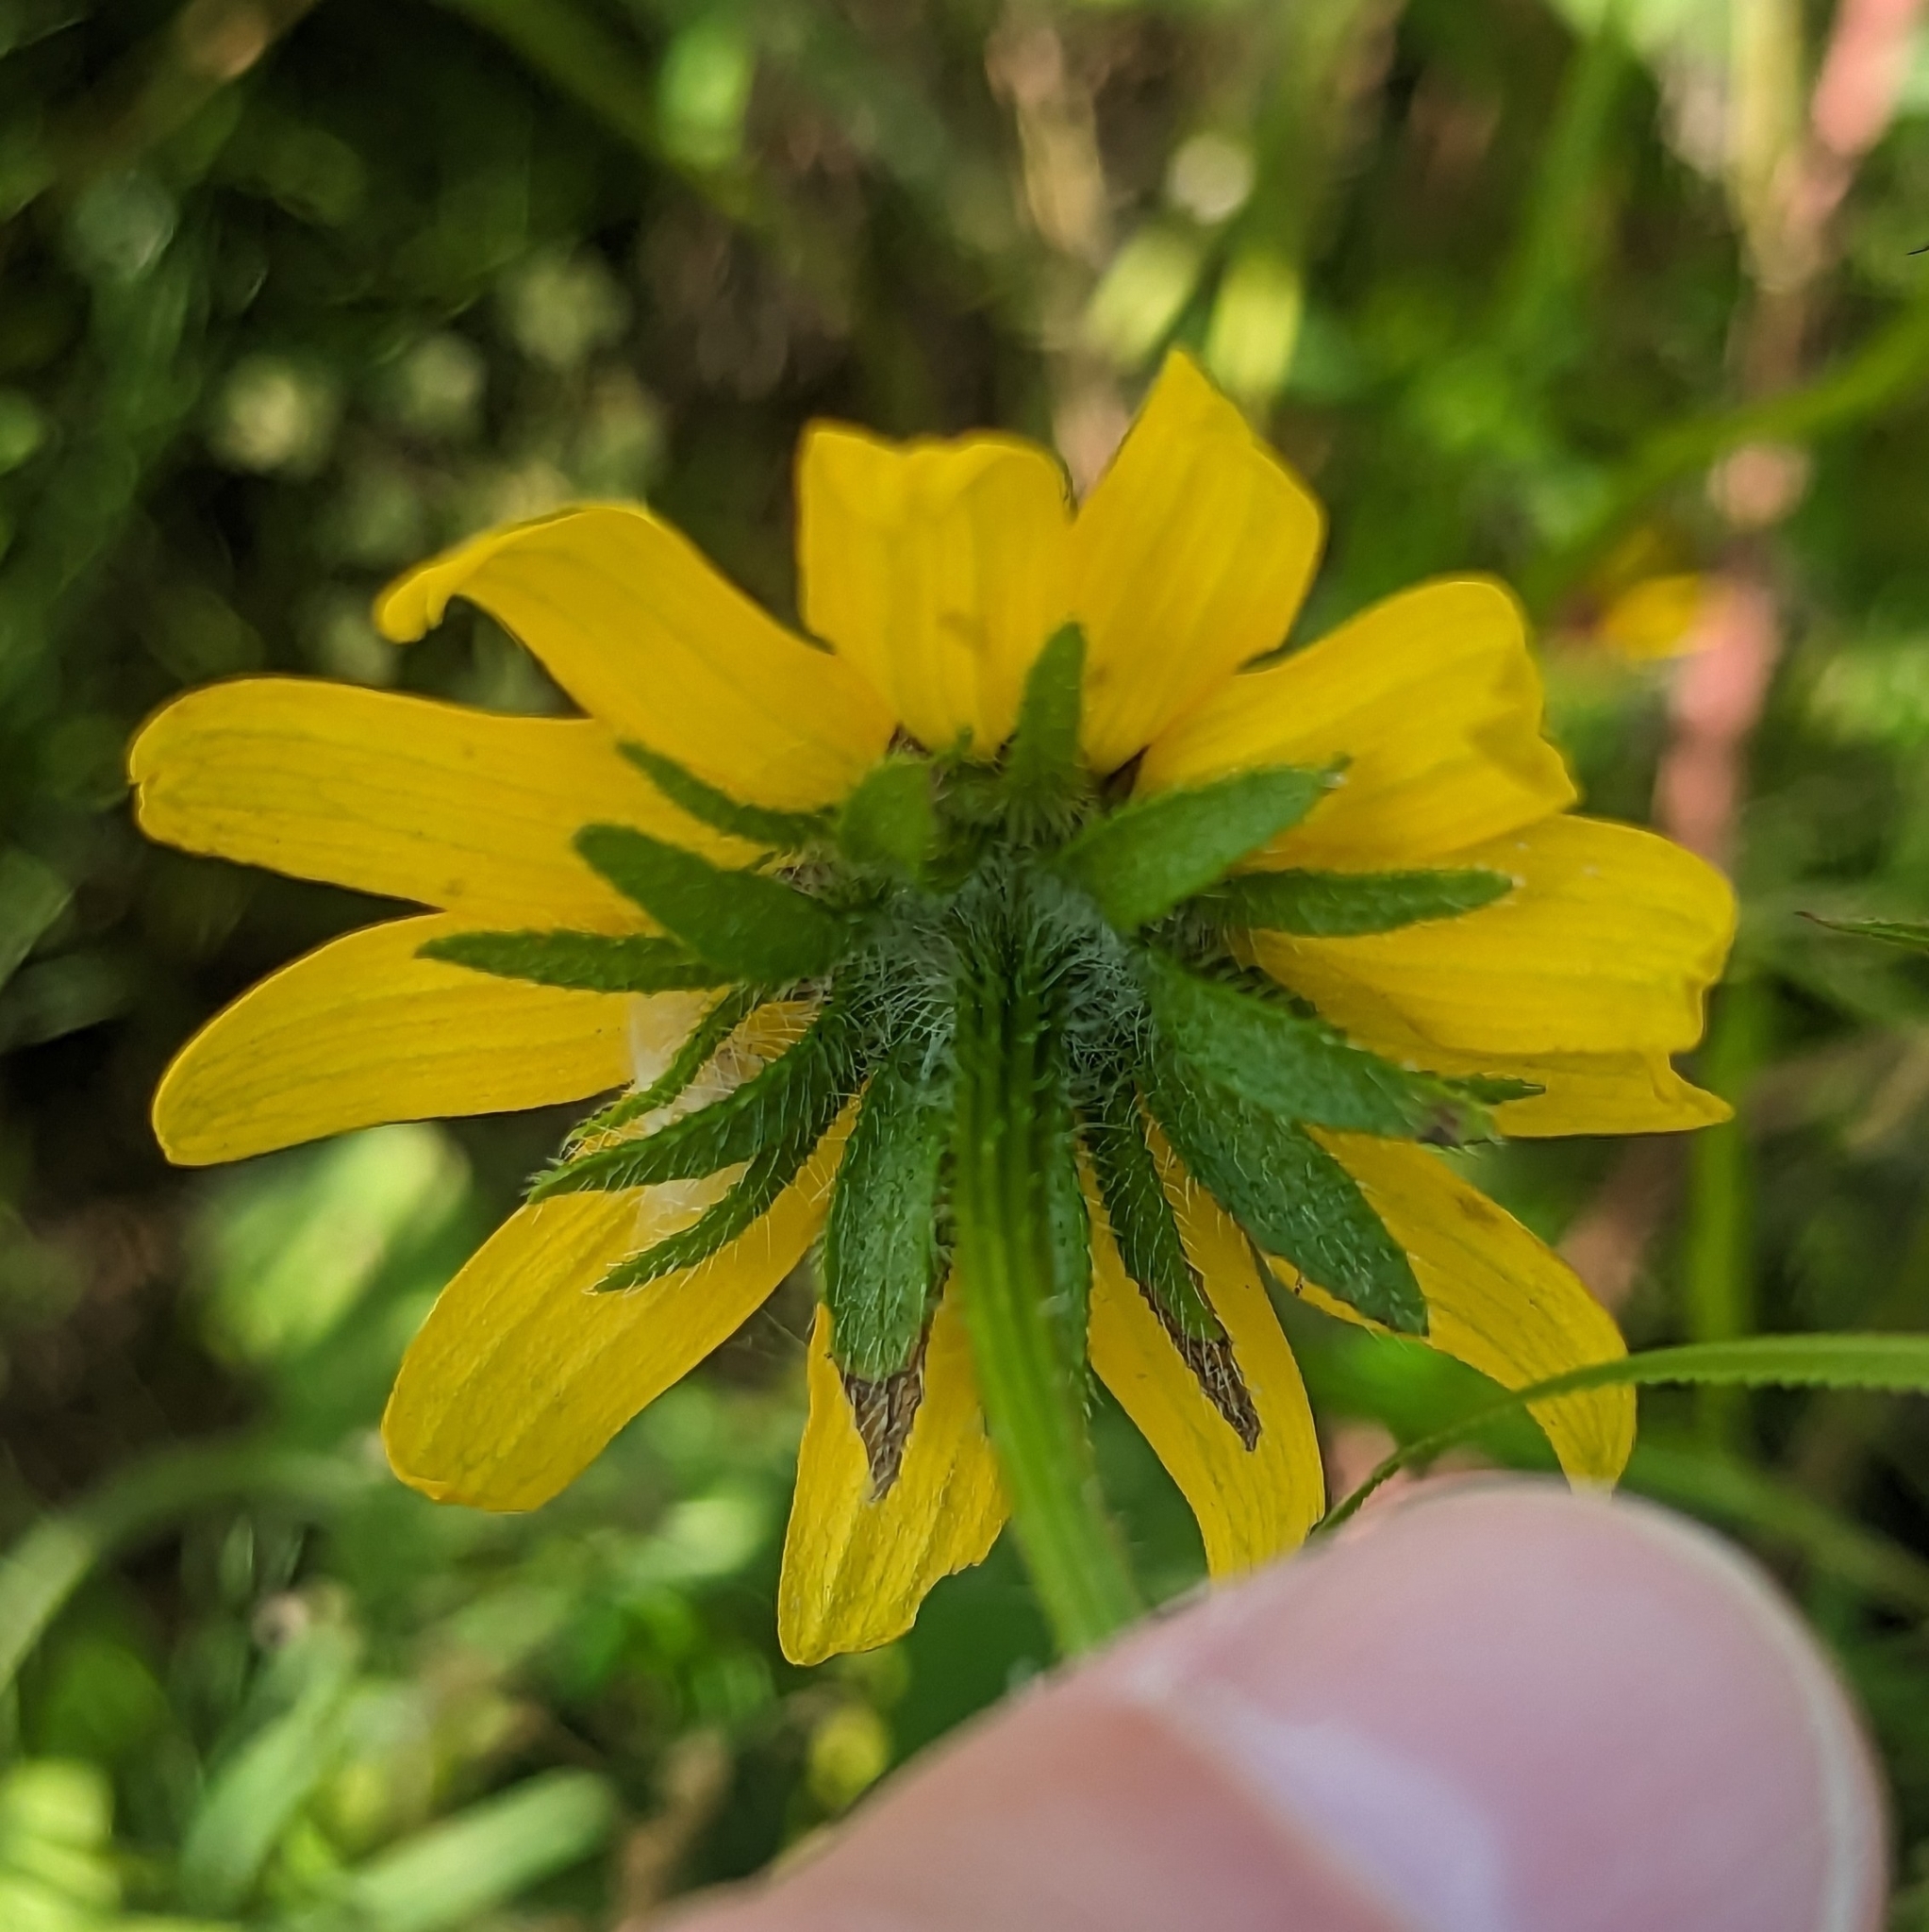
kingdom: Plantae
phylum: Tracheophyta
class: Magnoliopsida
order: Asterales
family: Asteraceae
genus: Rudbeckia
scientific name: Rudbeckia hirta
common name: Black-eyed-susan
